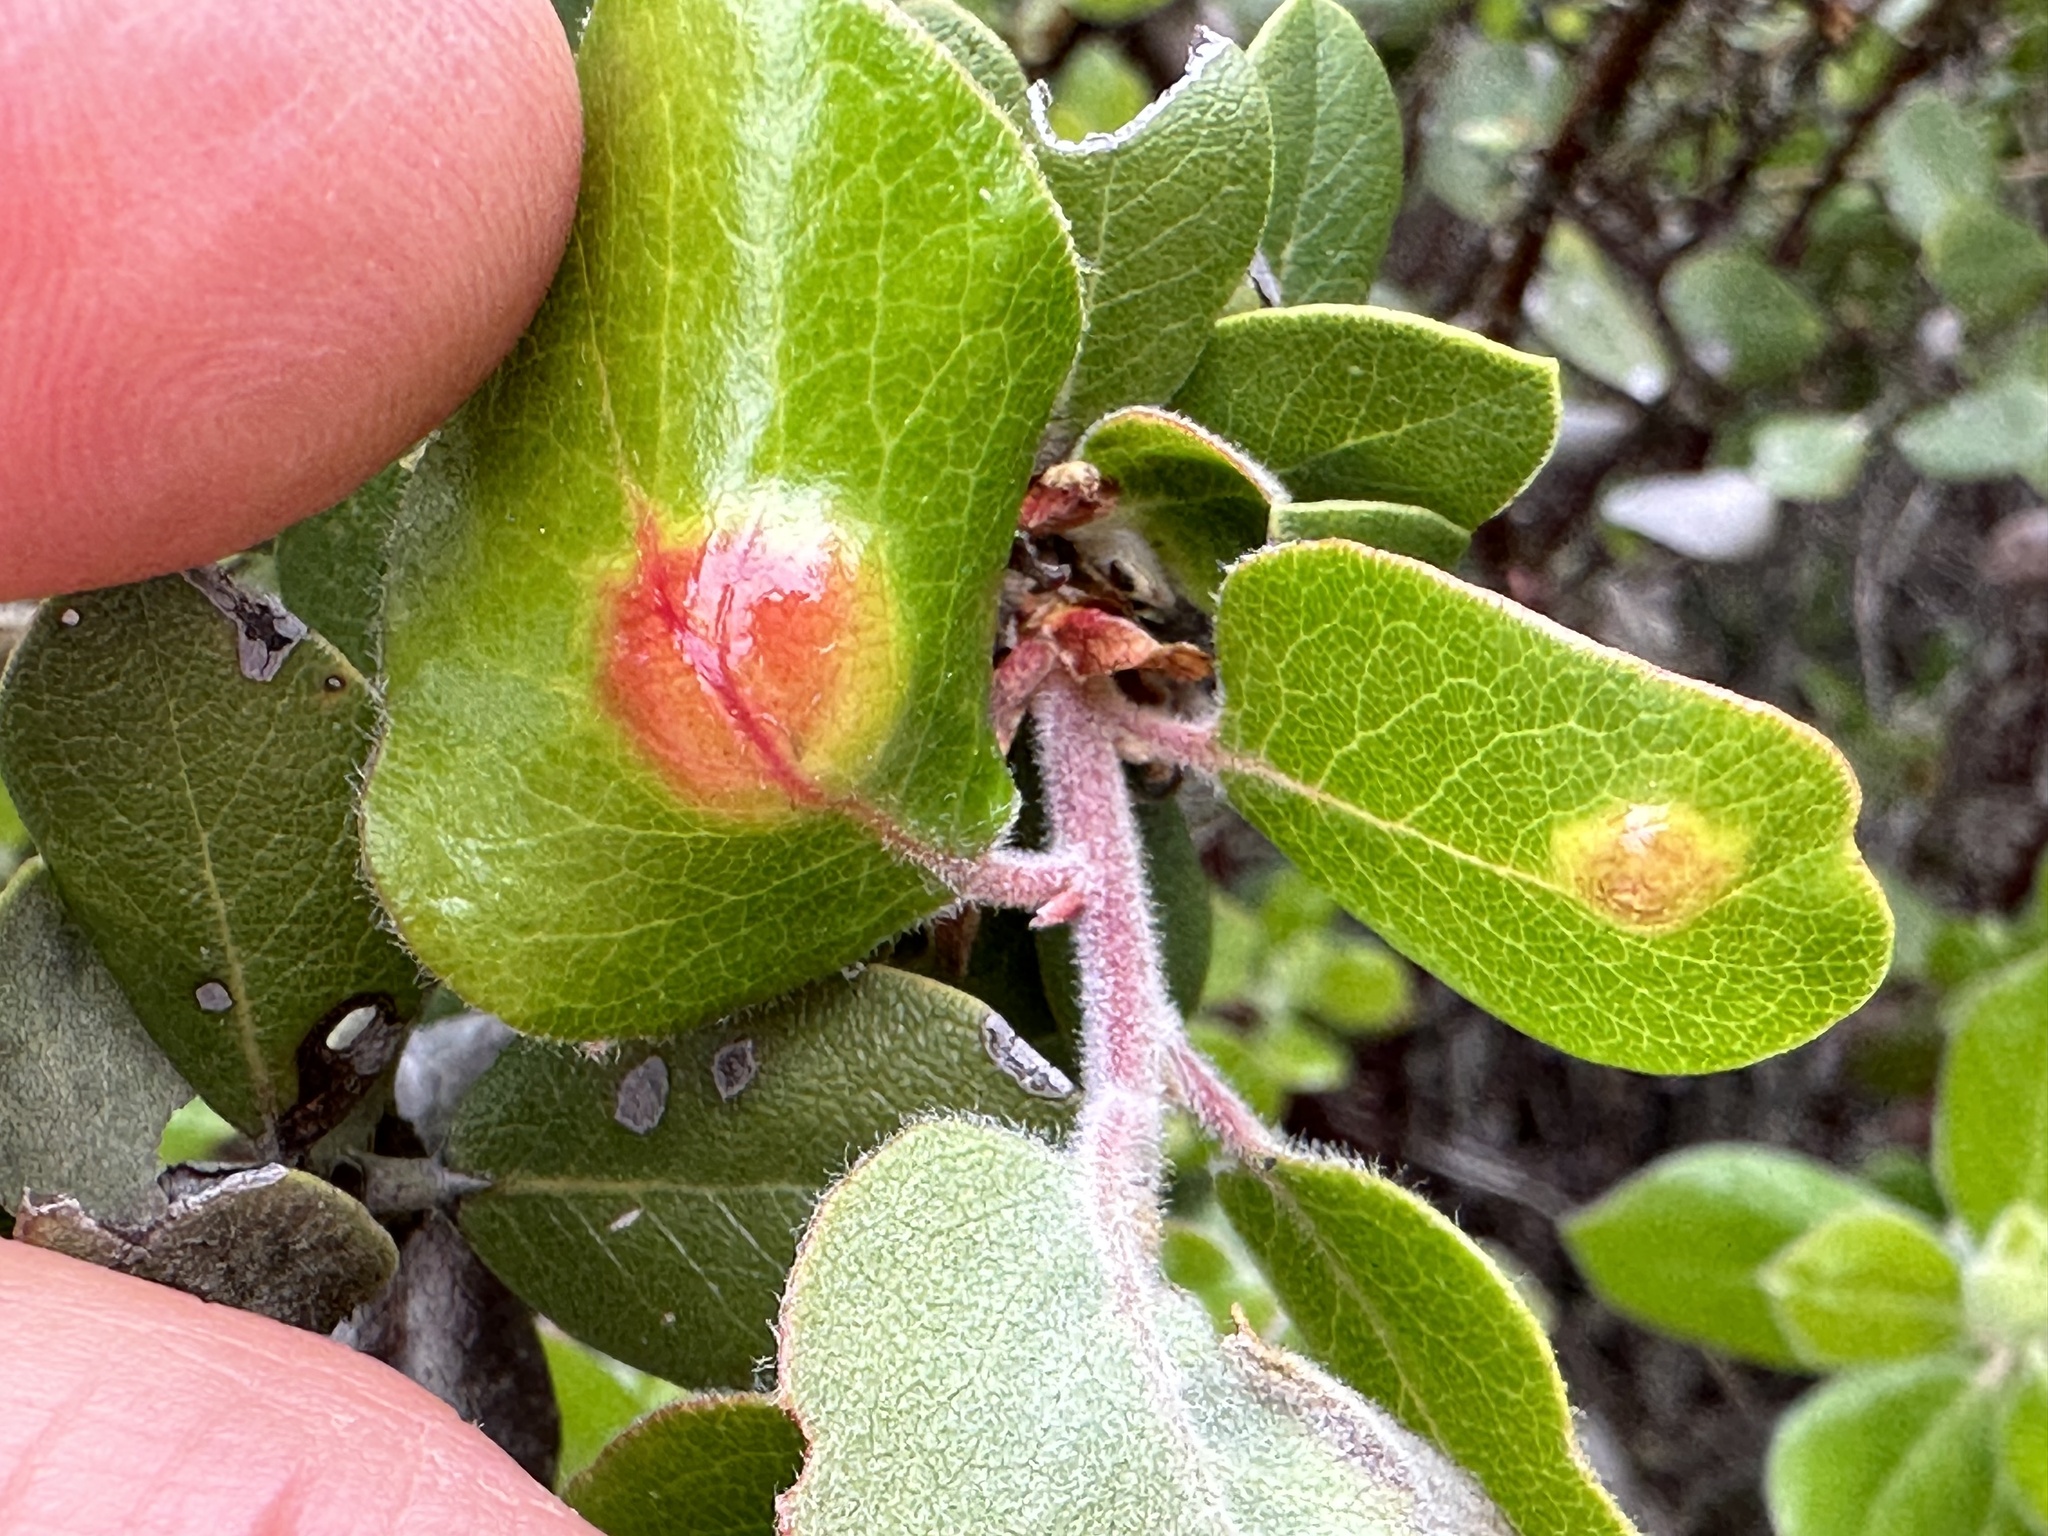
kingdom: Fungi
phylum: Basidiomycota
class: Exobasidiomycetes
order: Exobasidiales
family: Exobasidiaceae
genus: Exobasidium
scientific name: Exobasidium arctostaphyli
